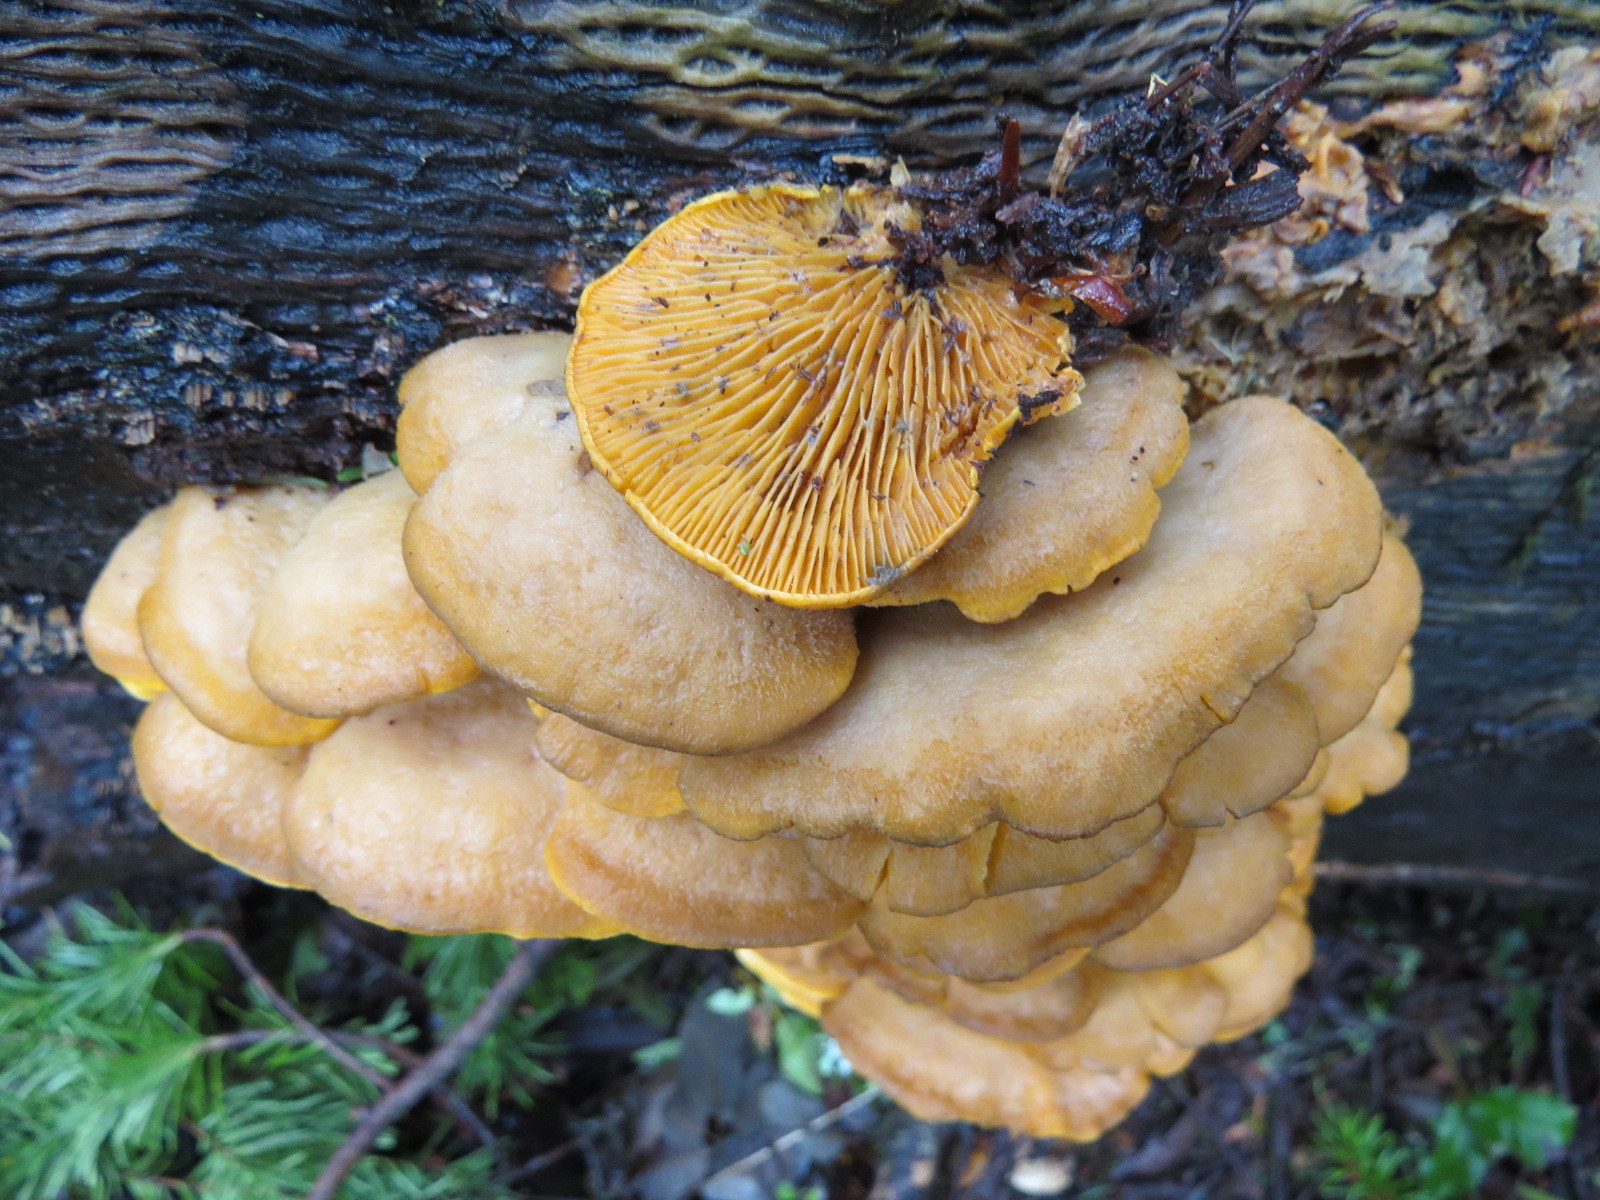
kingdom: Fungi
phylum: Basidiomycota
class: Agaricomycetes
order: Agaricales
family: Phyllotopsidaceae
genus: Phyllotopsis
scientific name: Phyllotopsis nidulans
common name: Orange mock oyster
